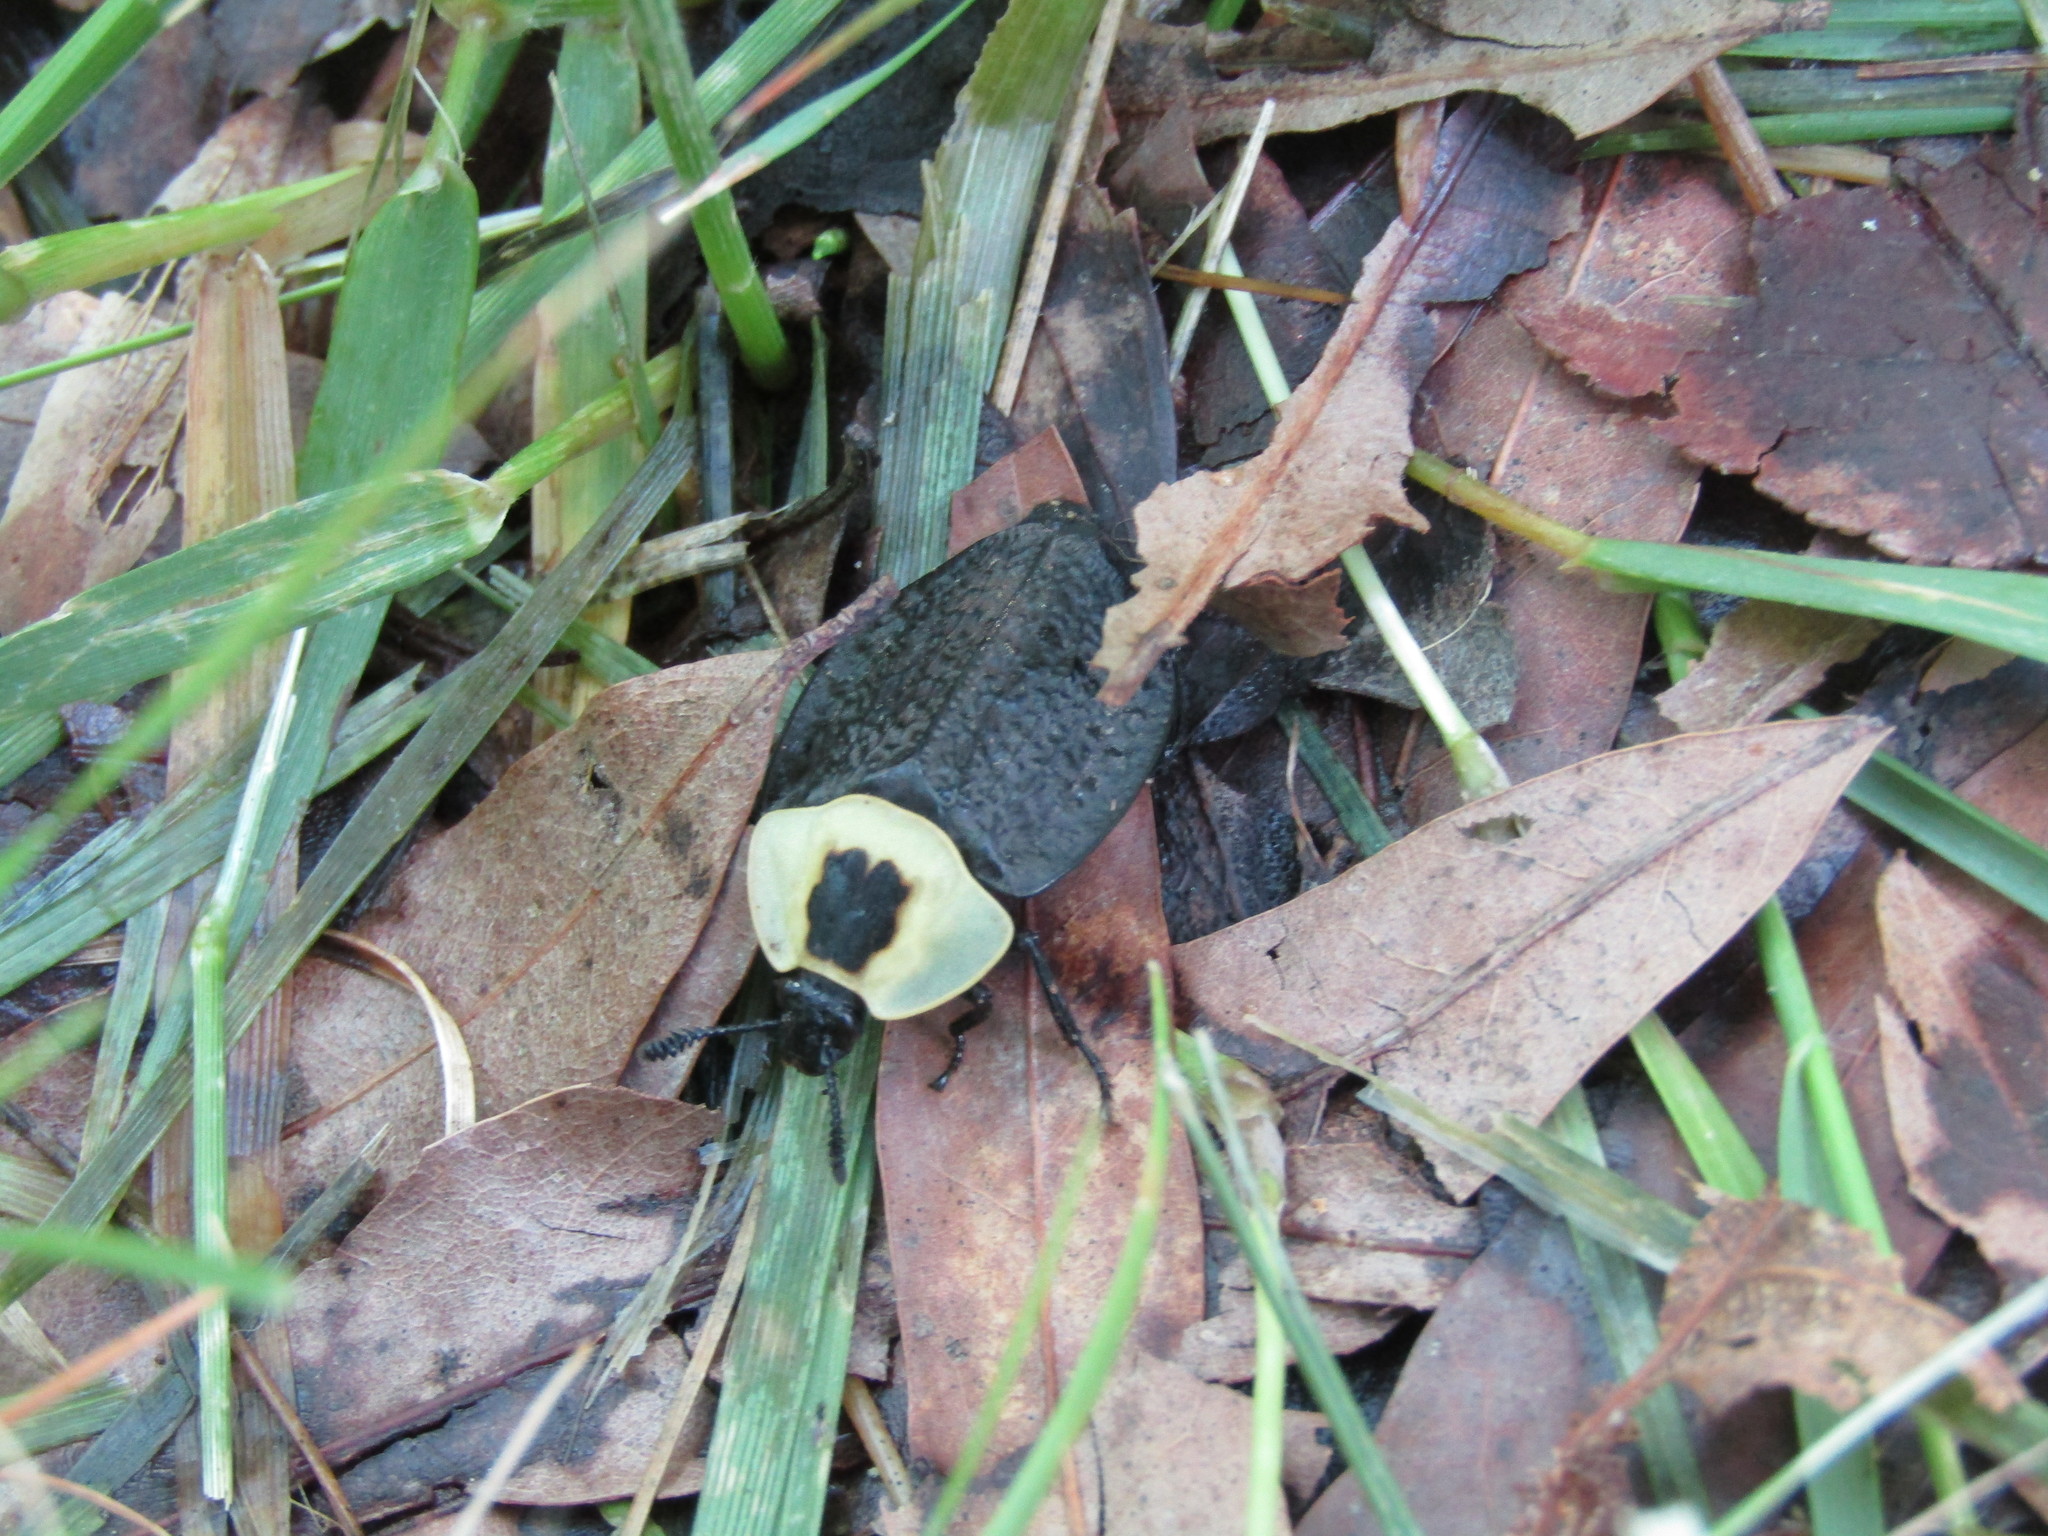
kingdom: Animalia
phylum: Arthropoda
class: Insecta
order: Coleoptera
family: Staphylinidae
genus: Necrophila
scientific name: Necrophila americana
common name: American carrion beetle
